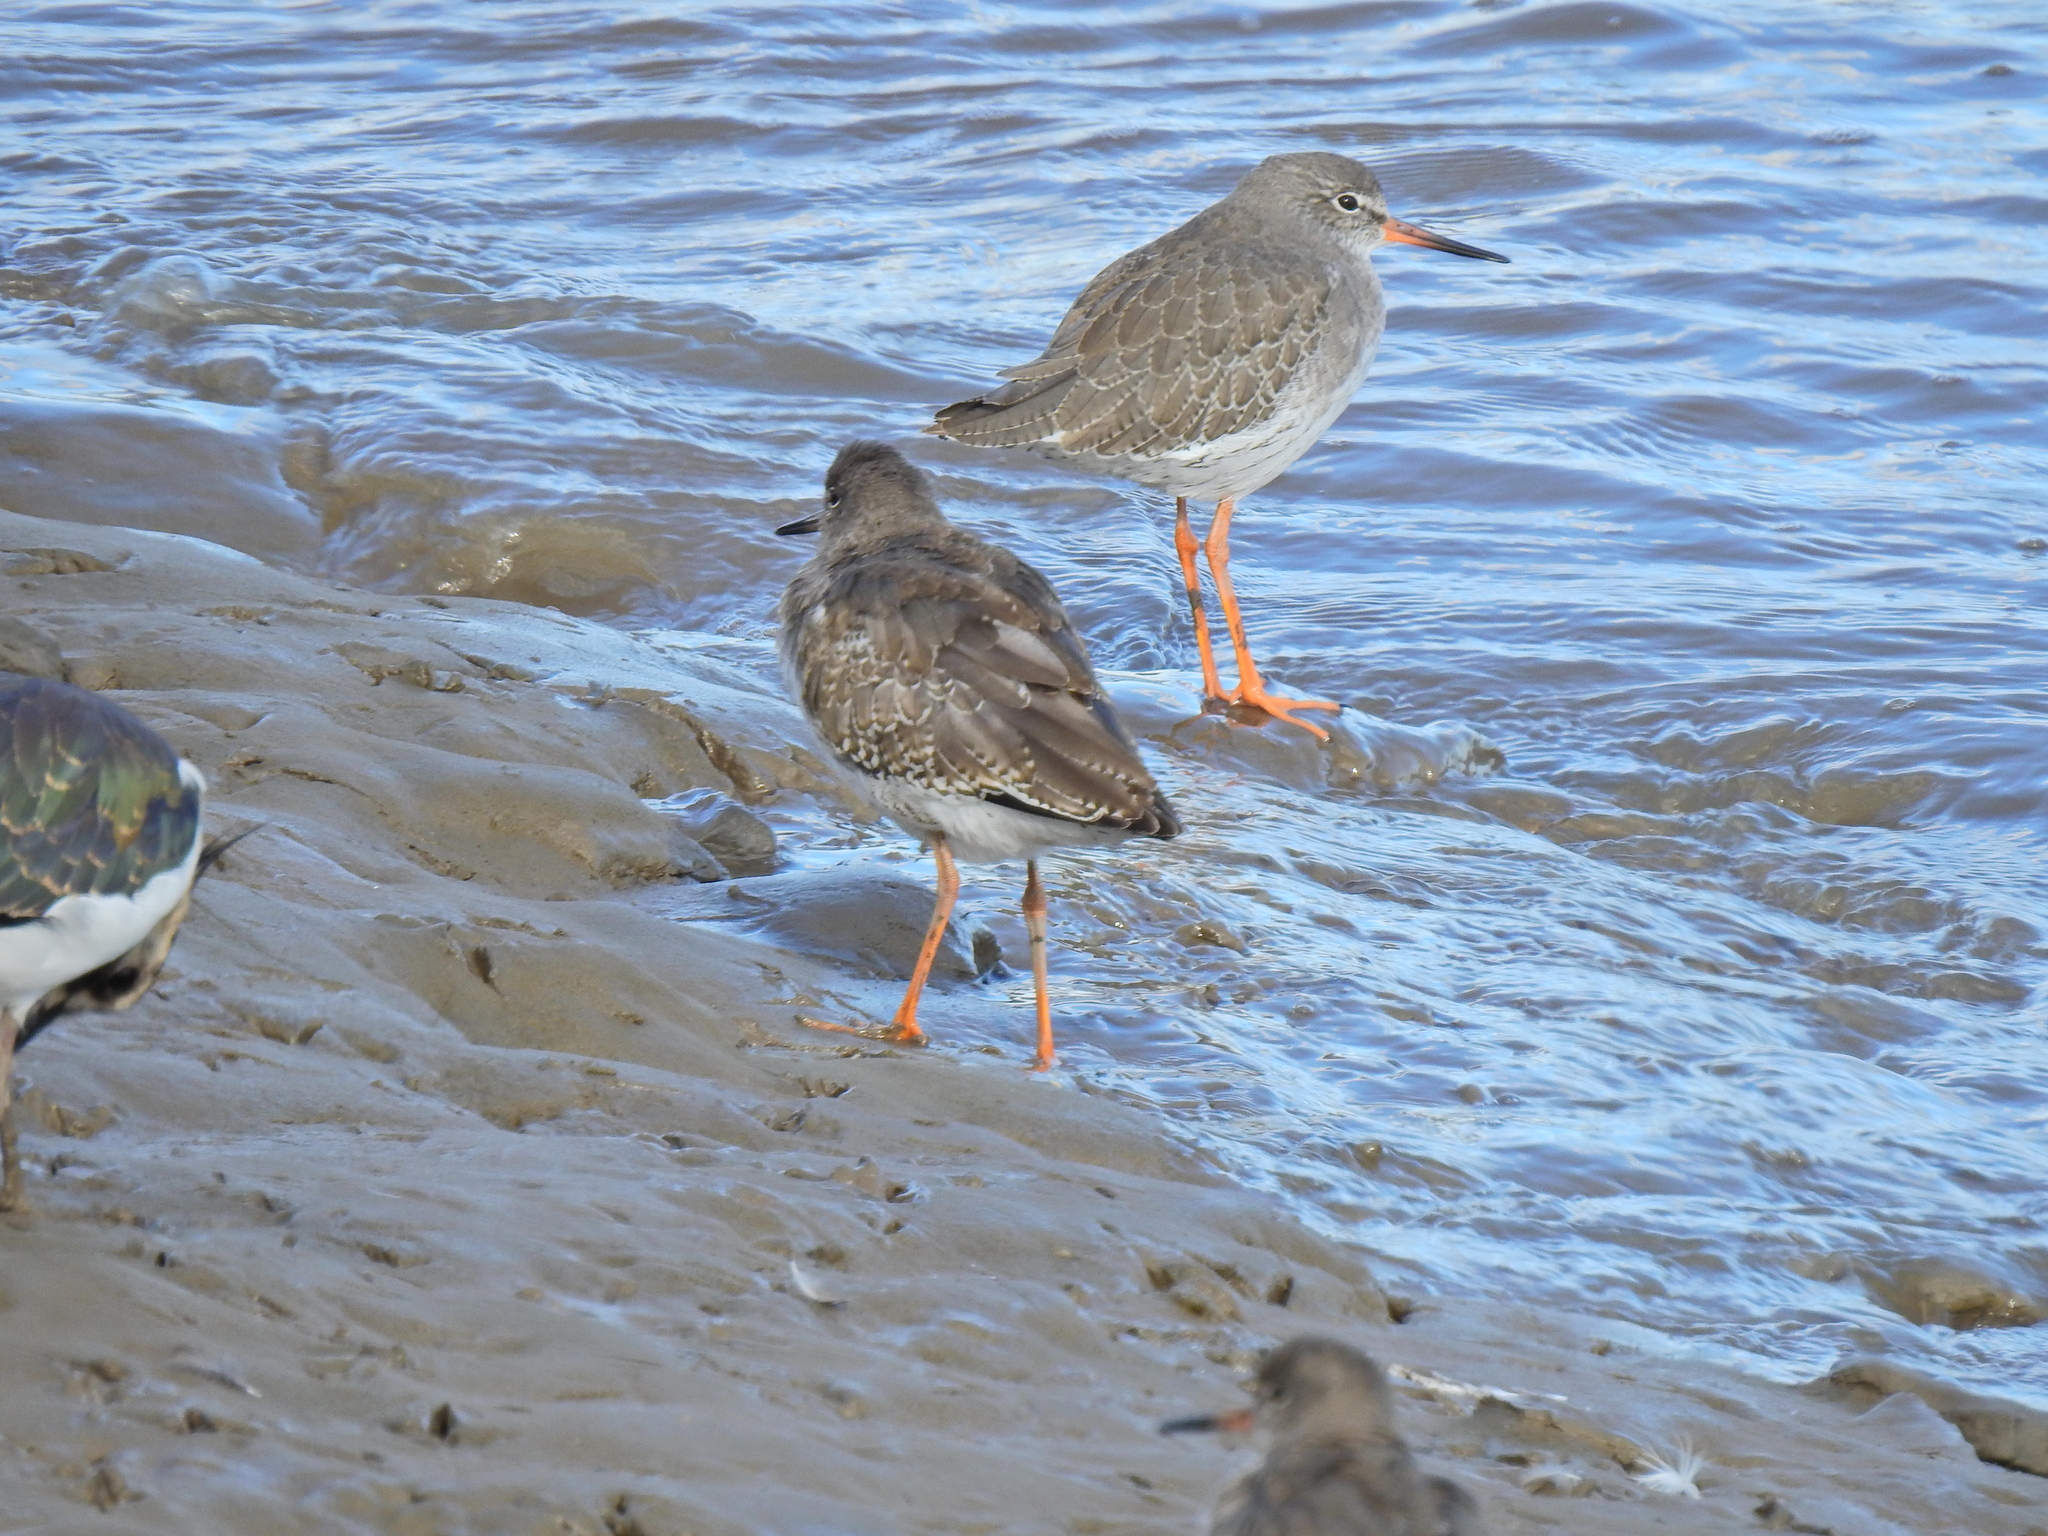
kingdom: Animalia
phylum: Chordata
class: Aves
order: Charadriiformes
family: Scolopacidae
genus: Tringa
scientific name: Tringa totanus
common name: Common redshank
